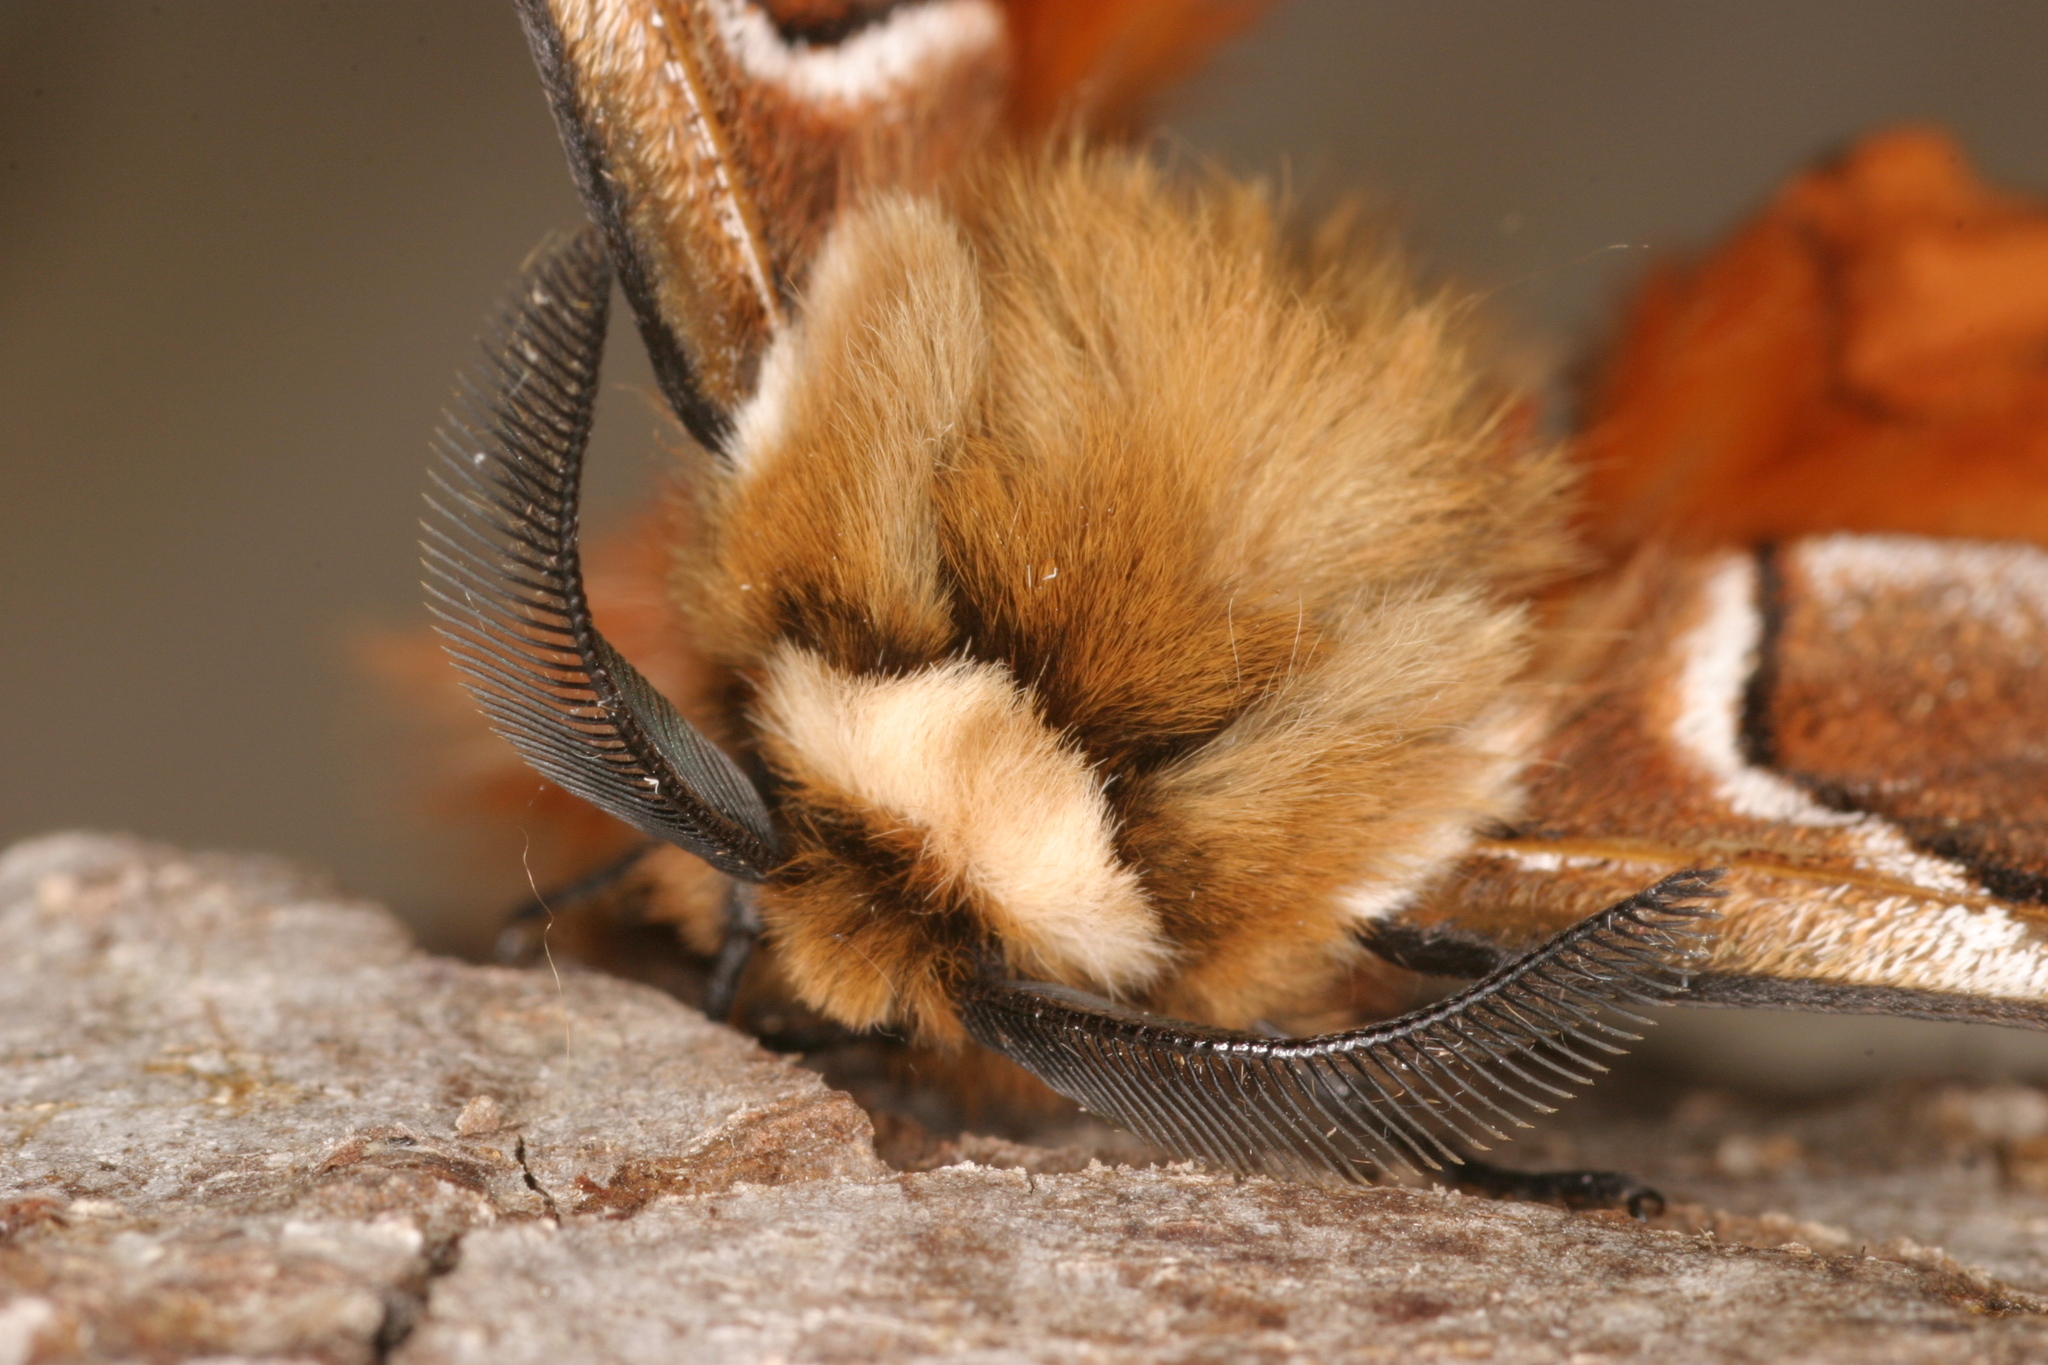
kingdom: Animalia
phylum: Arthropoda
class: Insecta
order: Lepidoptera
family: Endromidae
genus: Endromis
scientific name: Endromis versicolora
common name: Kentish glory
